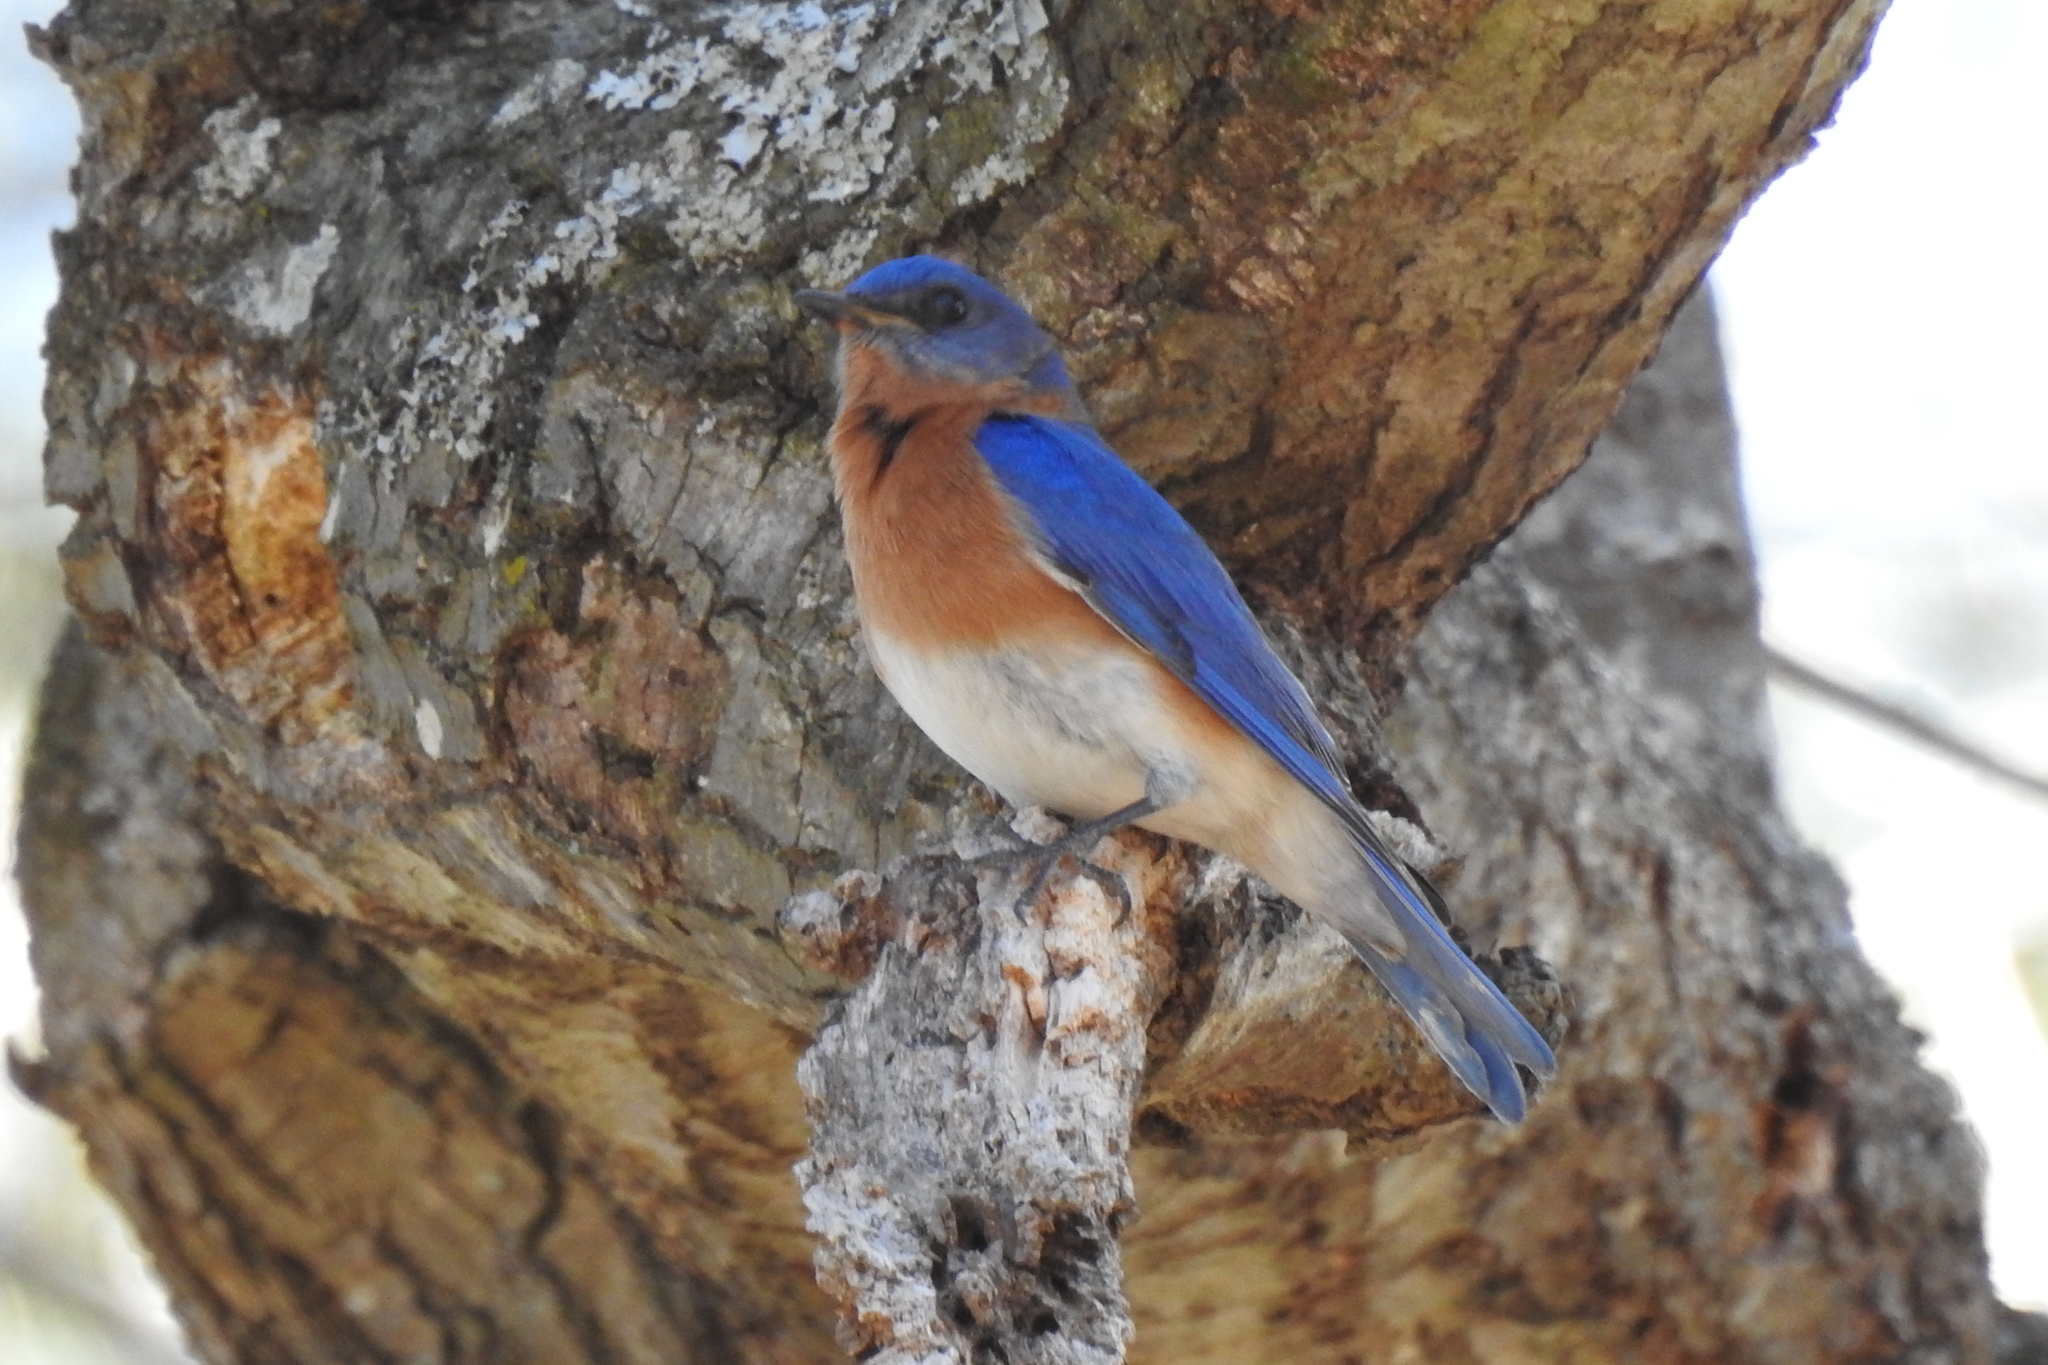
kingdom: Animalia
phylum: Chordata
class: Aves
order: Passeriformes
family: Turdidae
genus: Sialia
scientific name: Sialia sialis
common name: Eastern bluebird
